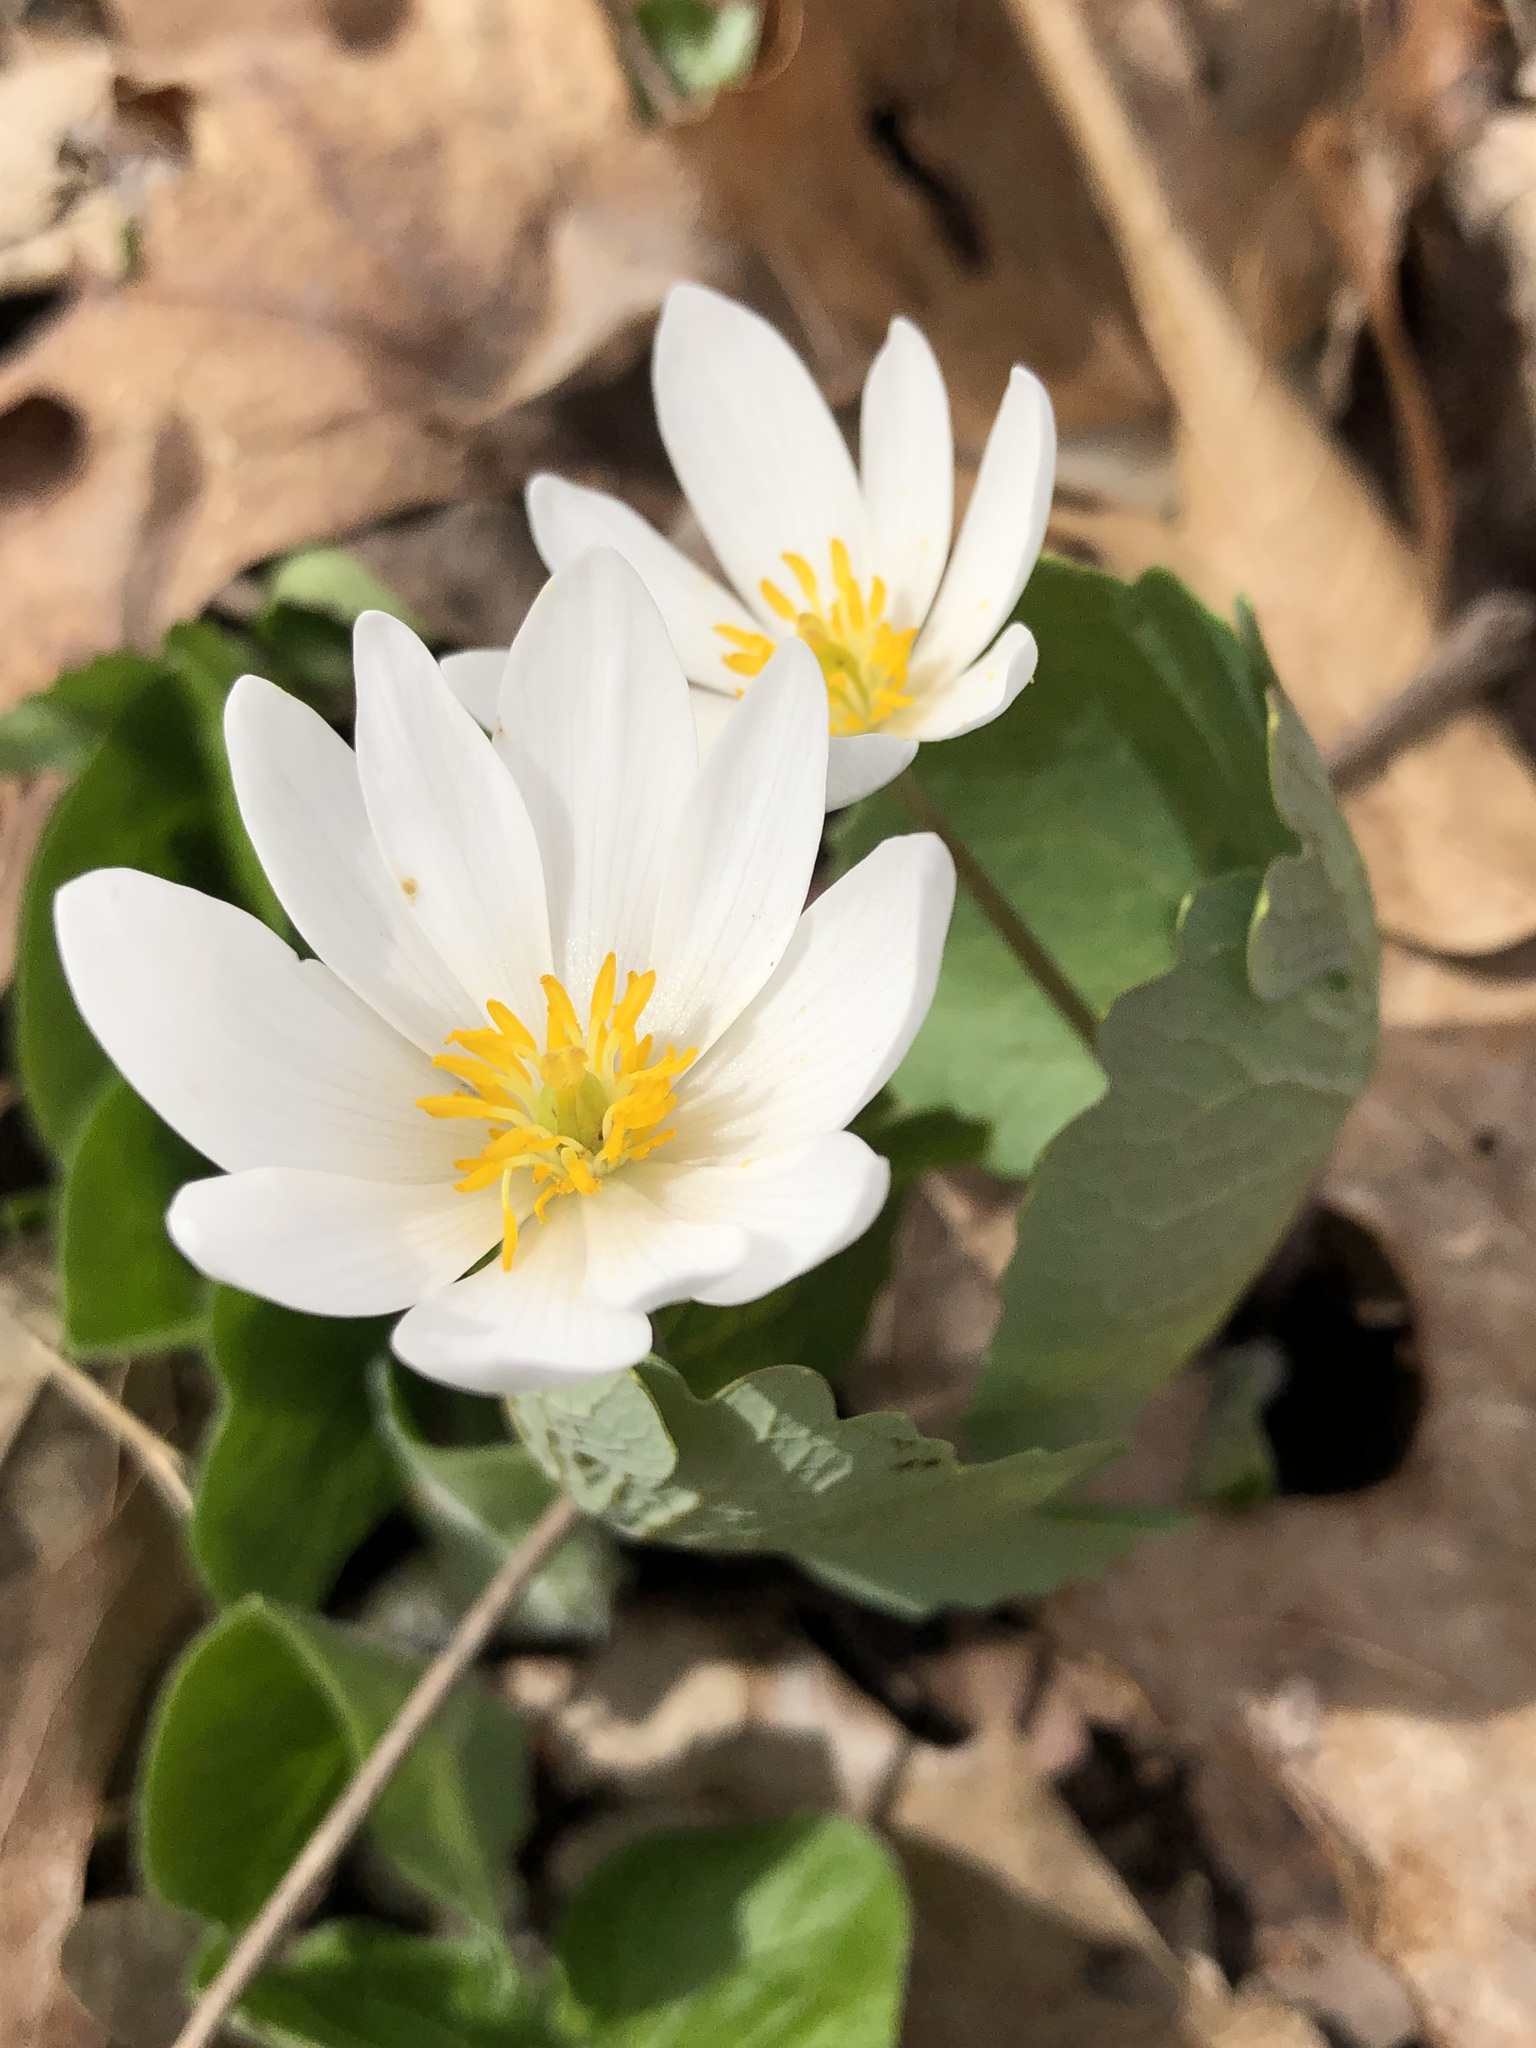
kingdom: Plantae
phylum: Tracheophyta
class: Magnoliopsida
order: Ranunculales
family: Papaveraceae
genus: Sanguinaria
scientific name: Sanguinaria canadensis
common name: Bloodroot
